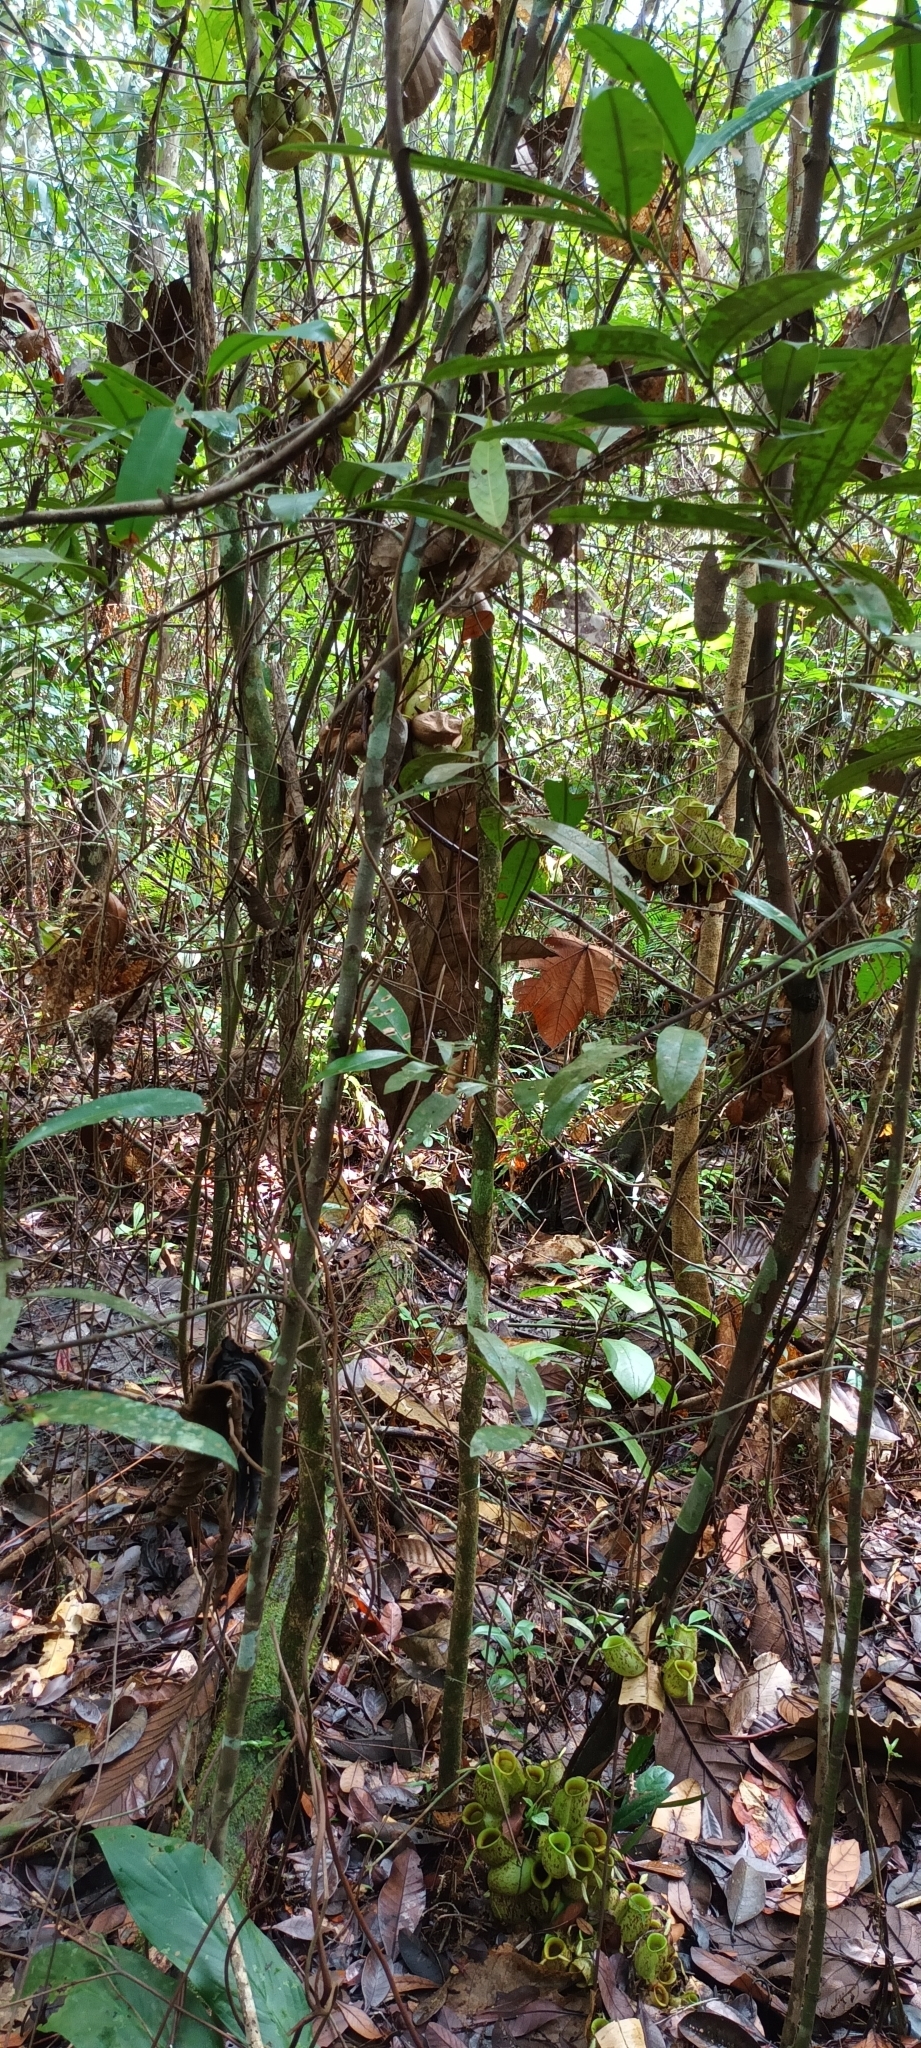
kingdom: Plantae
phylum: Tracheophyta
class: Magnoliopsida
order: Caryophyllales
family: Nepenthaceae
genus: Nepenthes
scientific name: Nepenthes ampullaria
